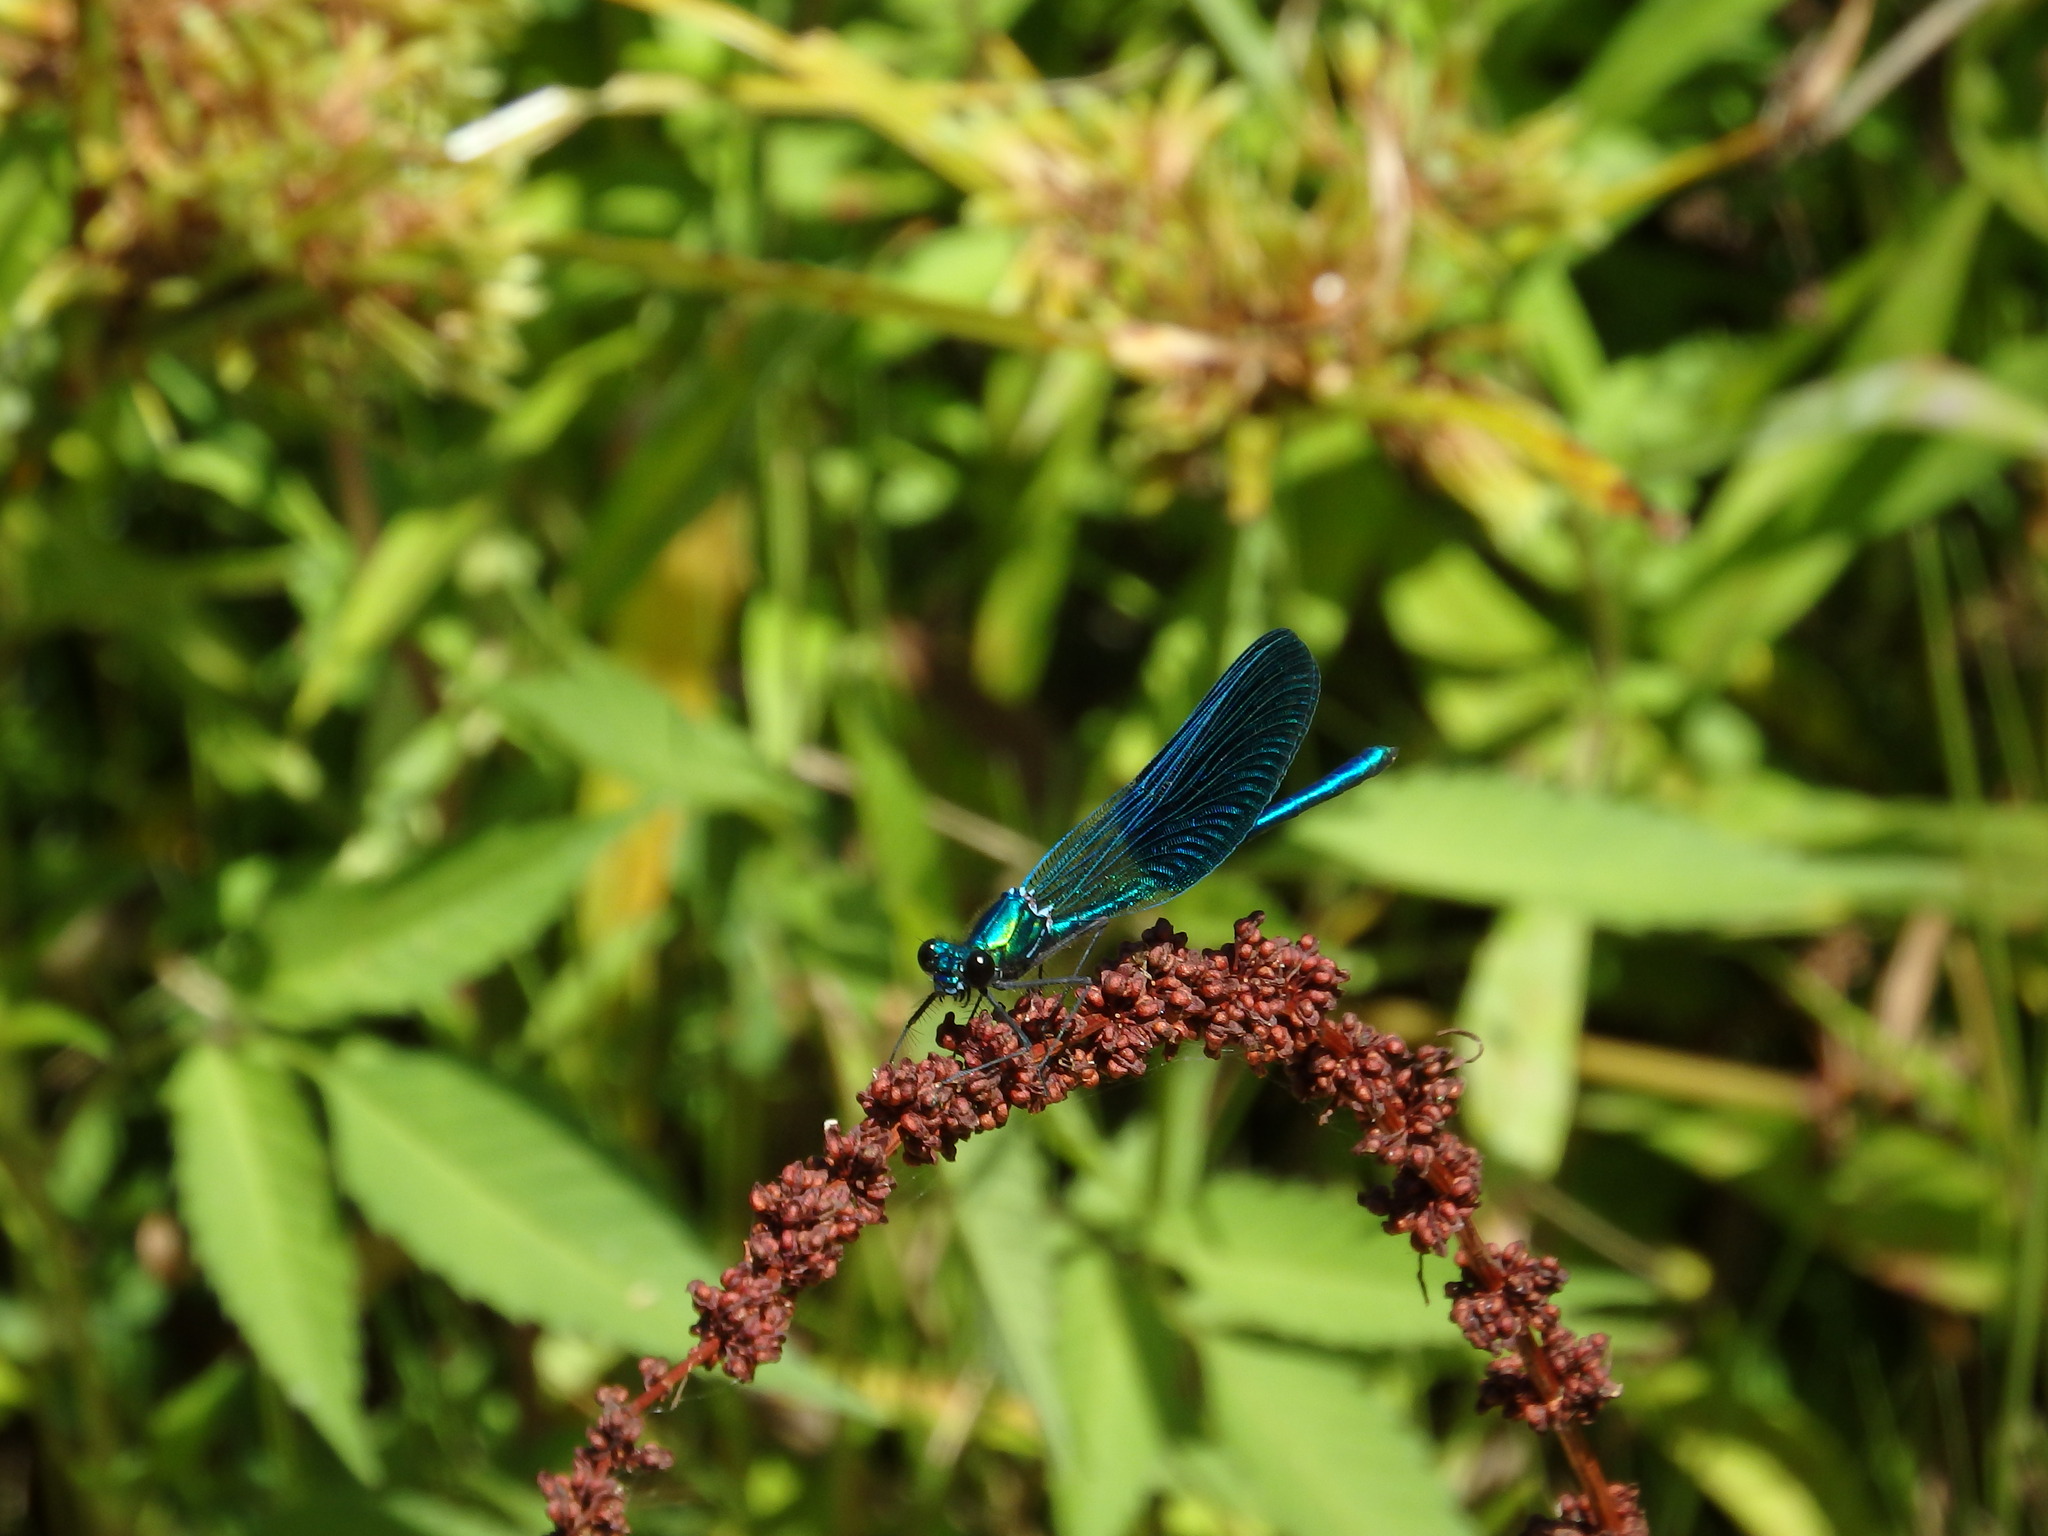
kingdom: Animalia
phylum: Arthropoda
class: Insecta
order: Odonata
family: Calopterygidae
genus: Calopteryx
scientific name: Calopteryx xanthostoma
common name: Western demoiselle
